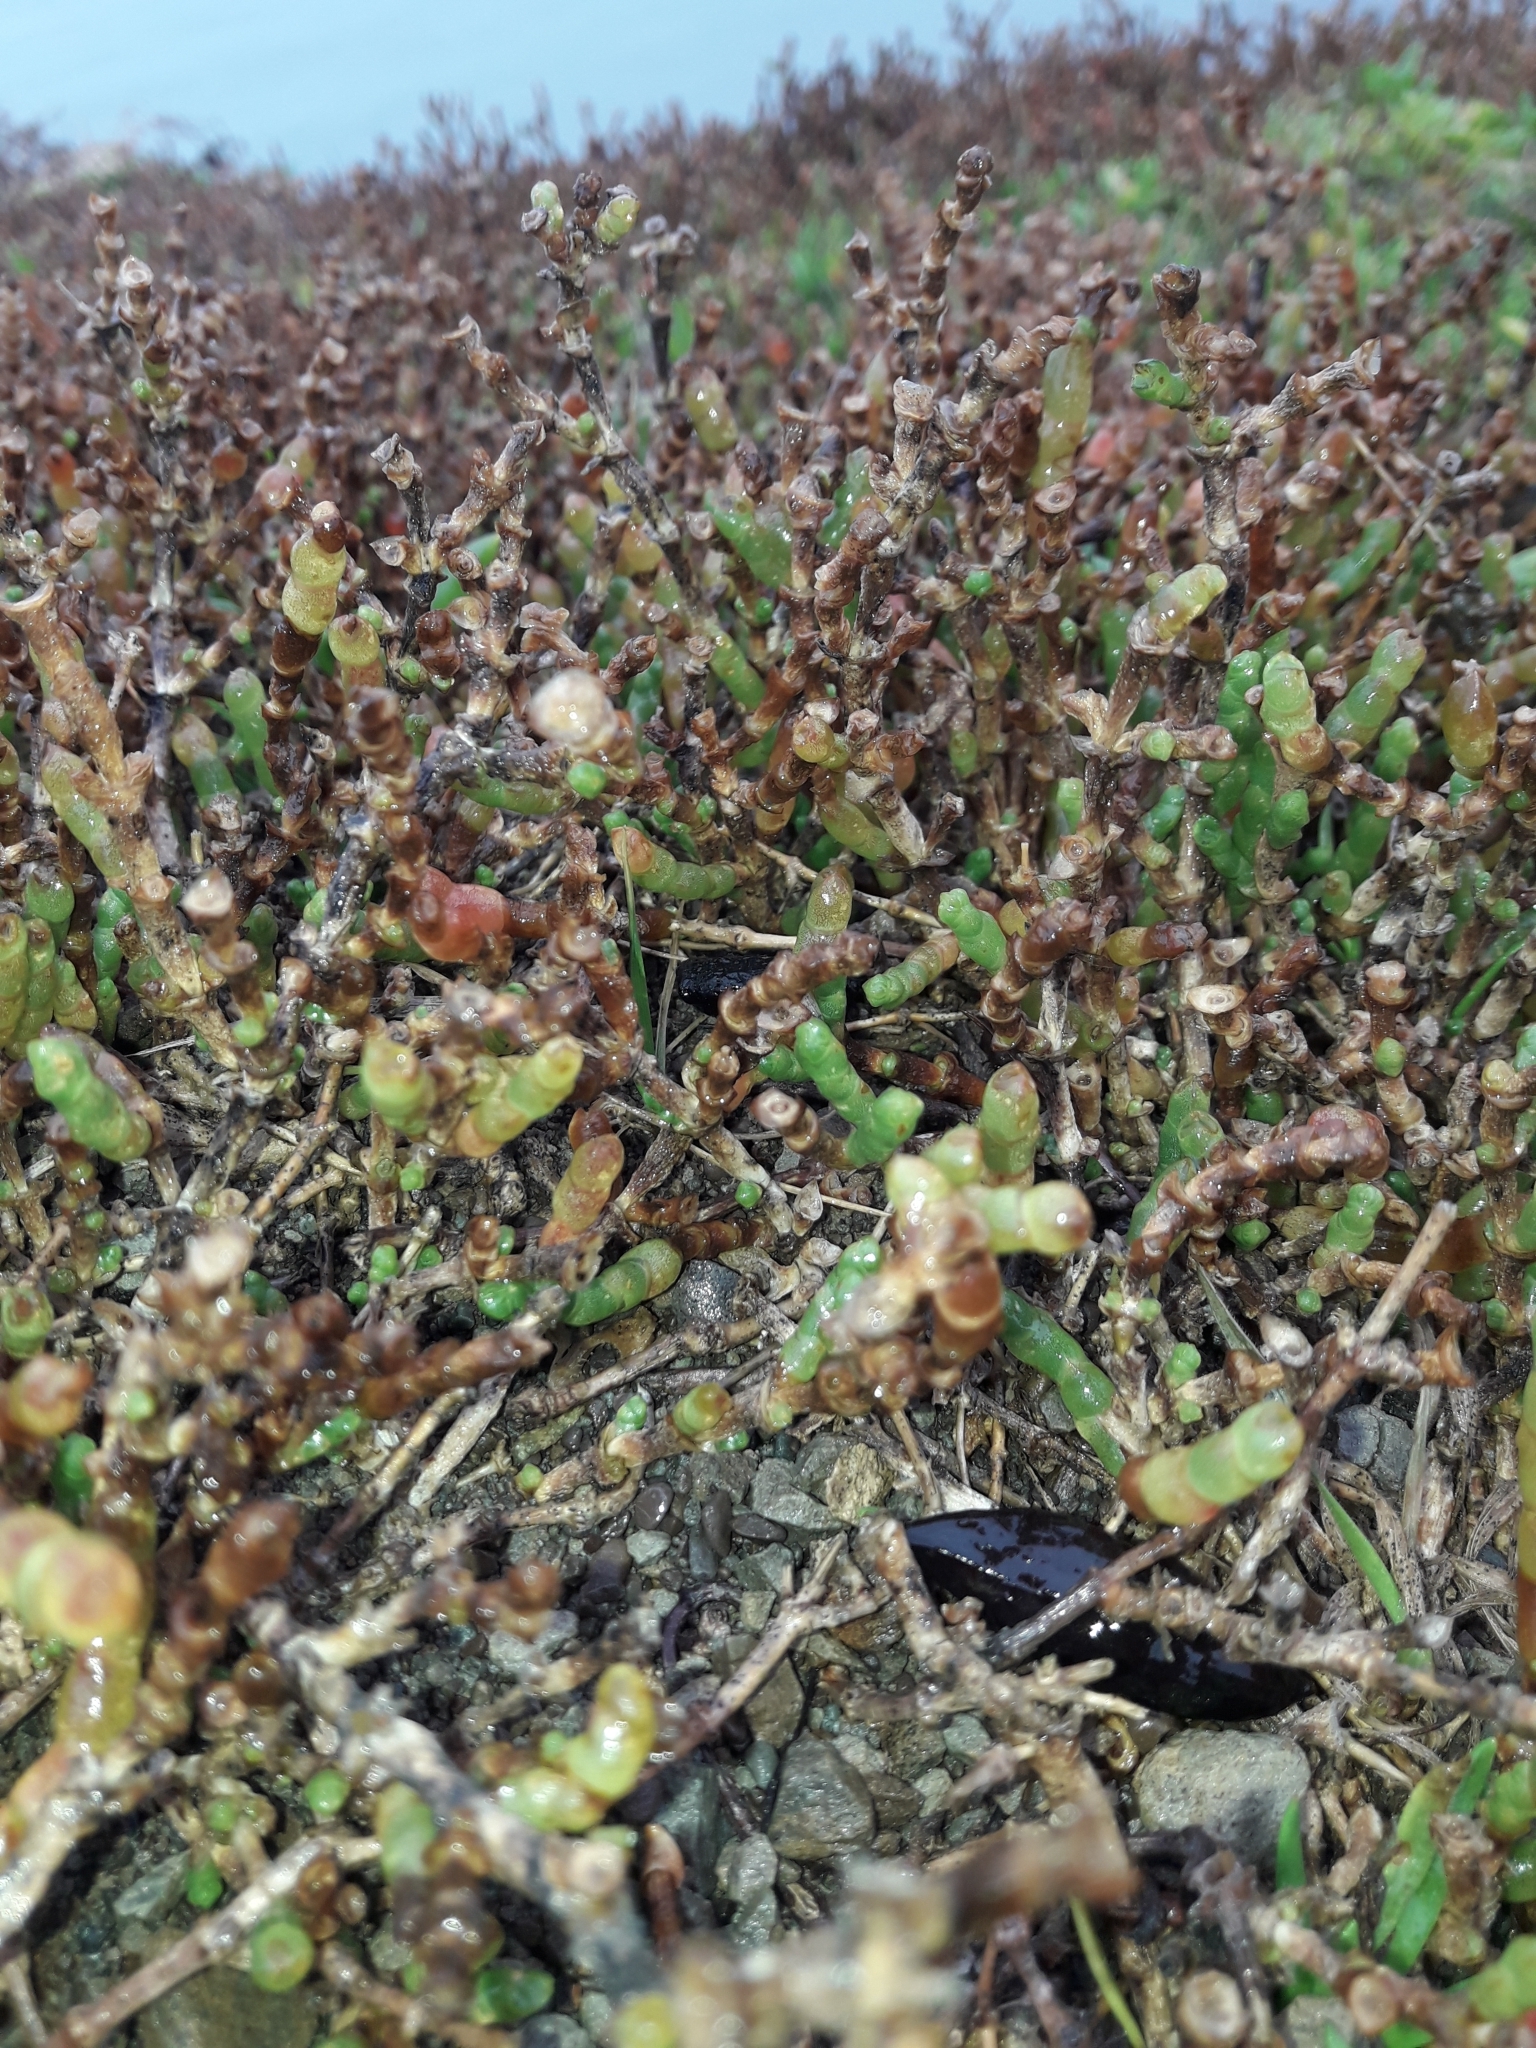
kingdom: Plantae
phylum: Tracheophyta
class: Magnoliopsida
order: Caryophyllales
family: Amaranthaceae
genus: Salicornia
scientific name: Salicornia quinqueflora
